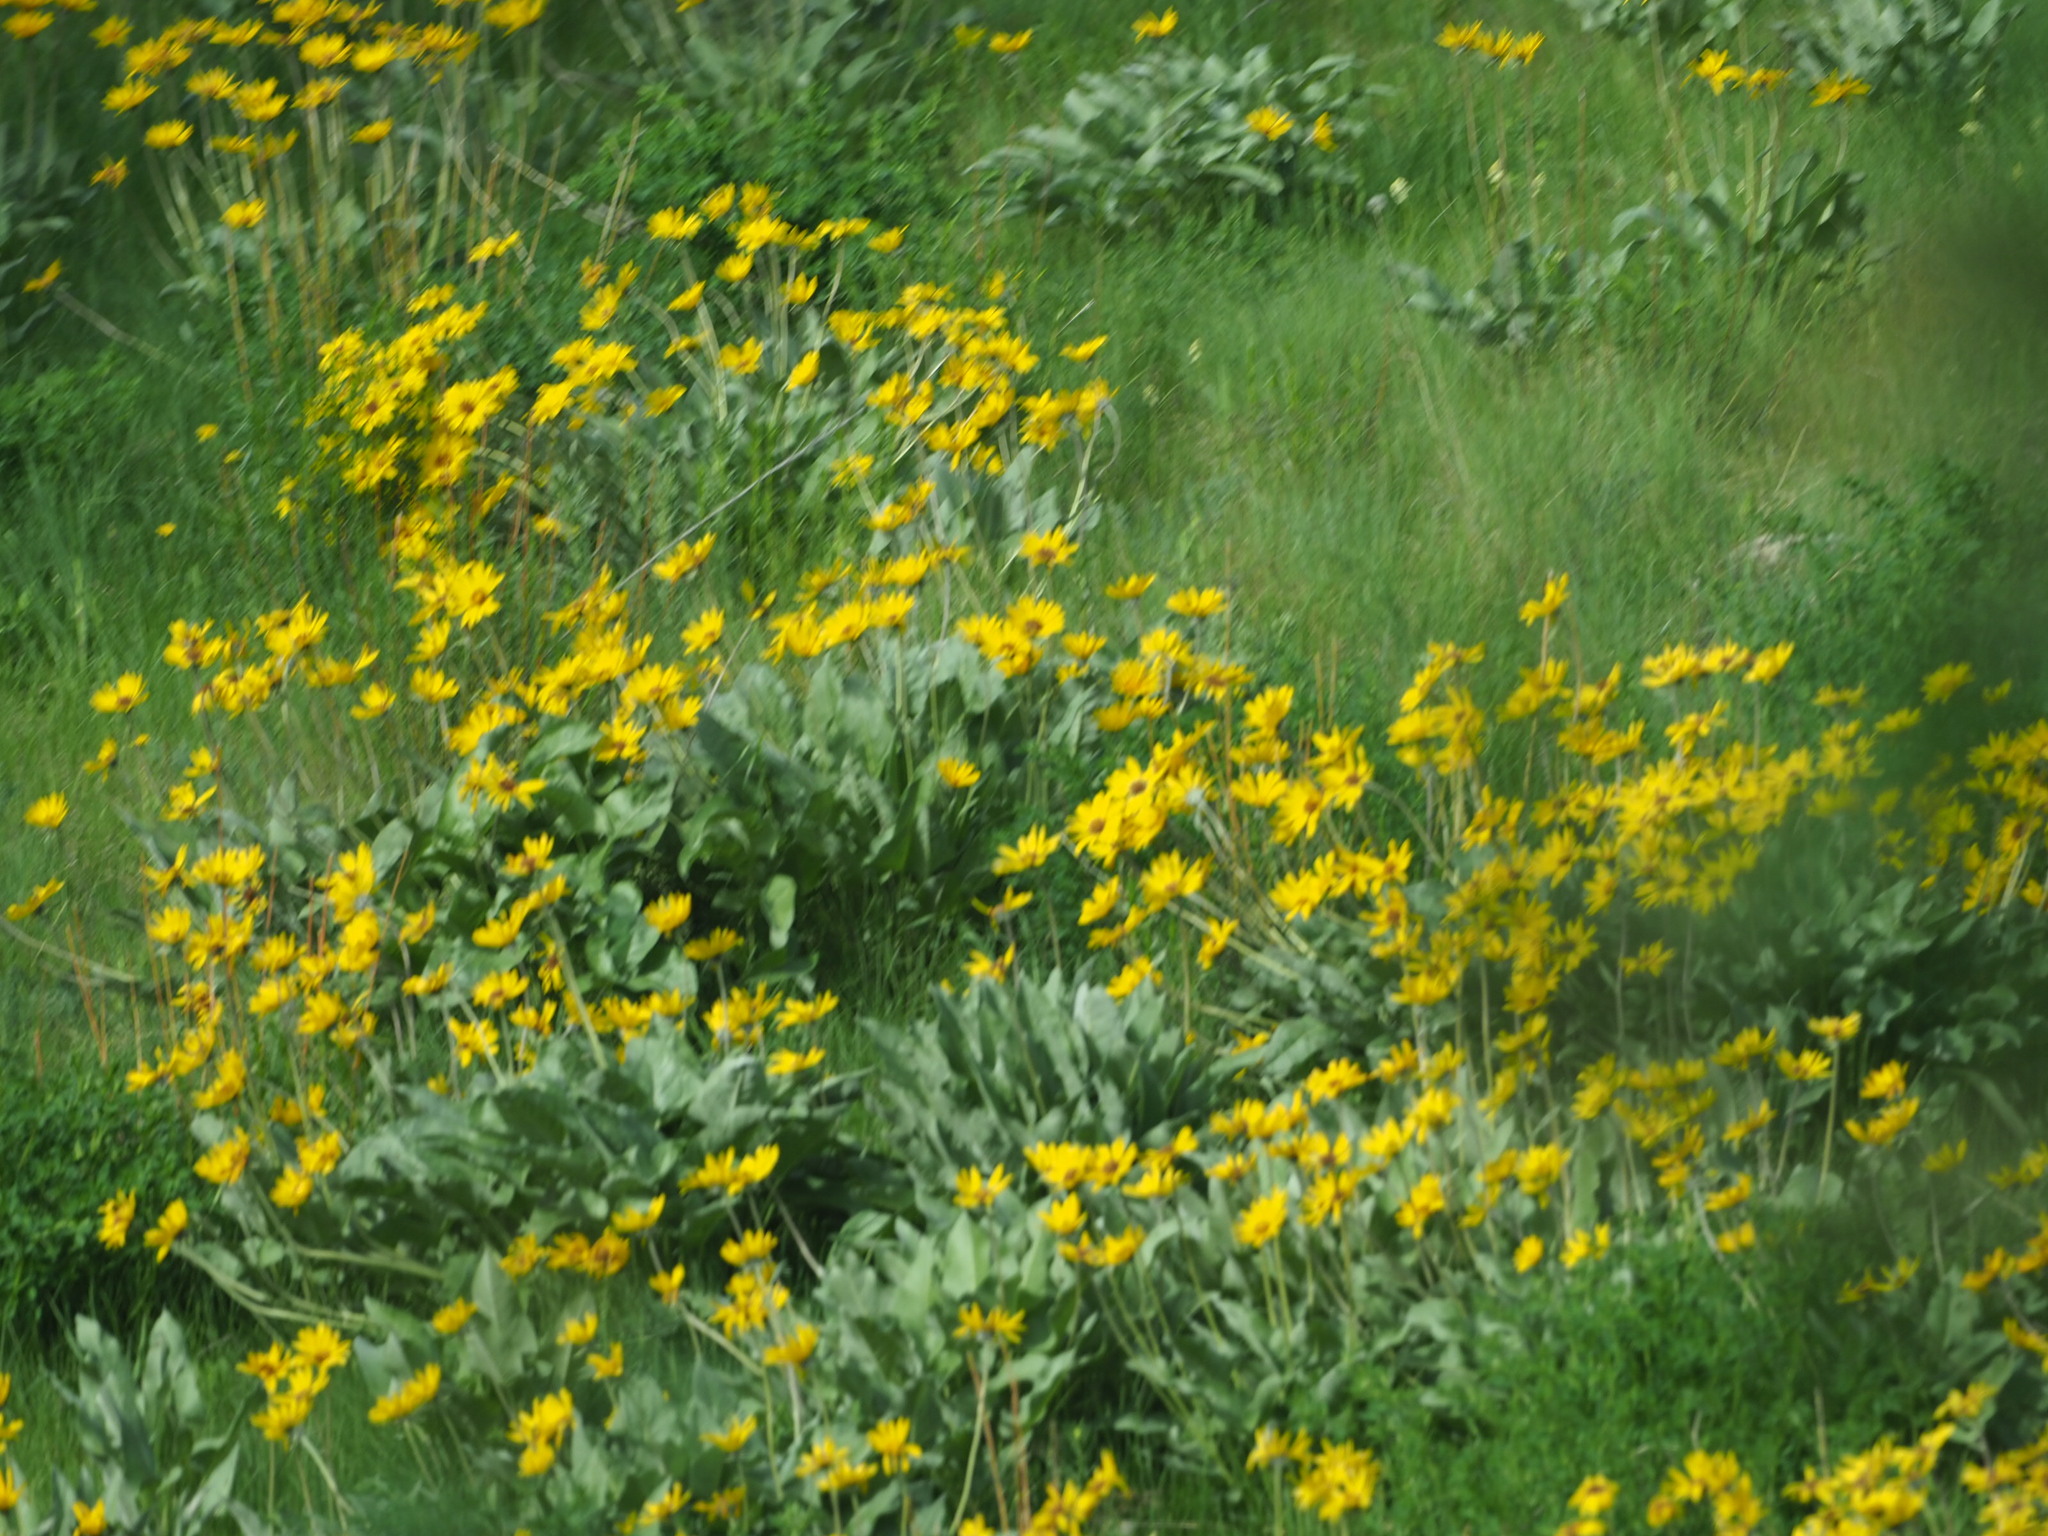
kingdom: Plantae
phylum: Tracheophyta
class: Magnoliopsida
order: Asterales
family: Asteraceae
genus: Wyethia
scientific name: Wyethia sagittata
